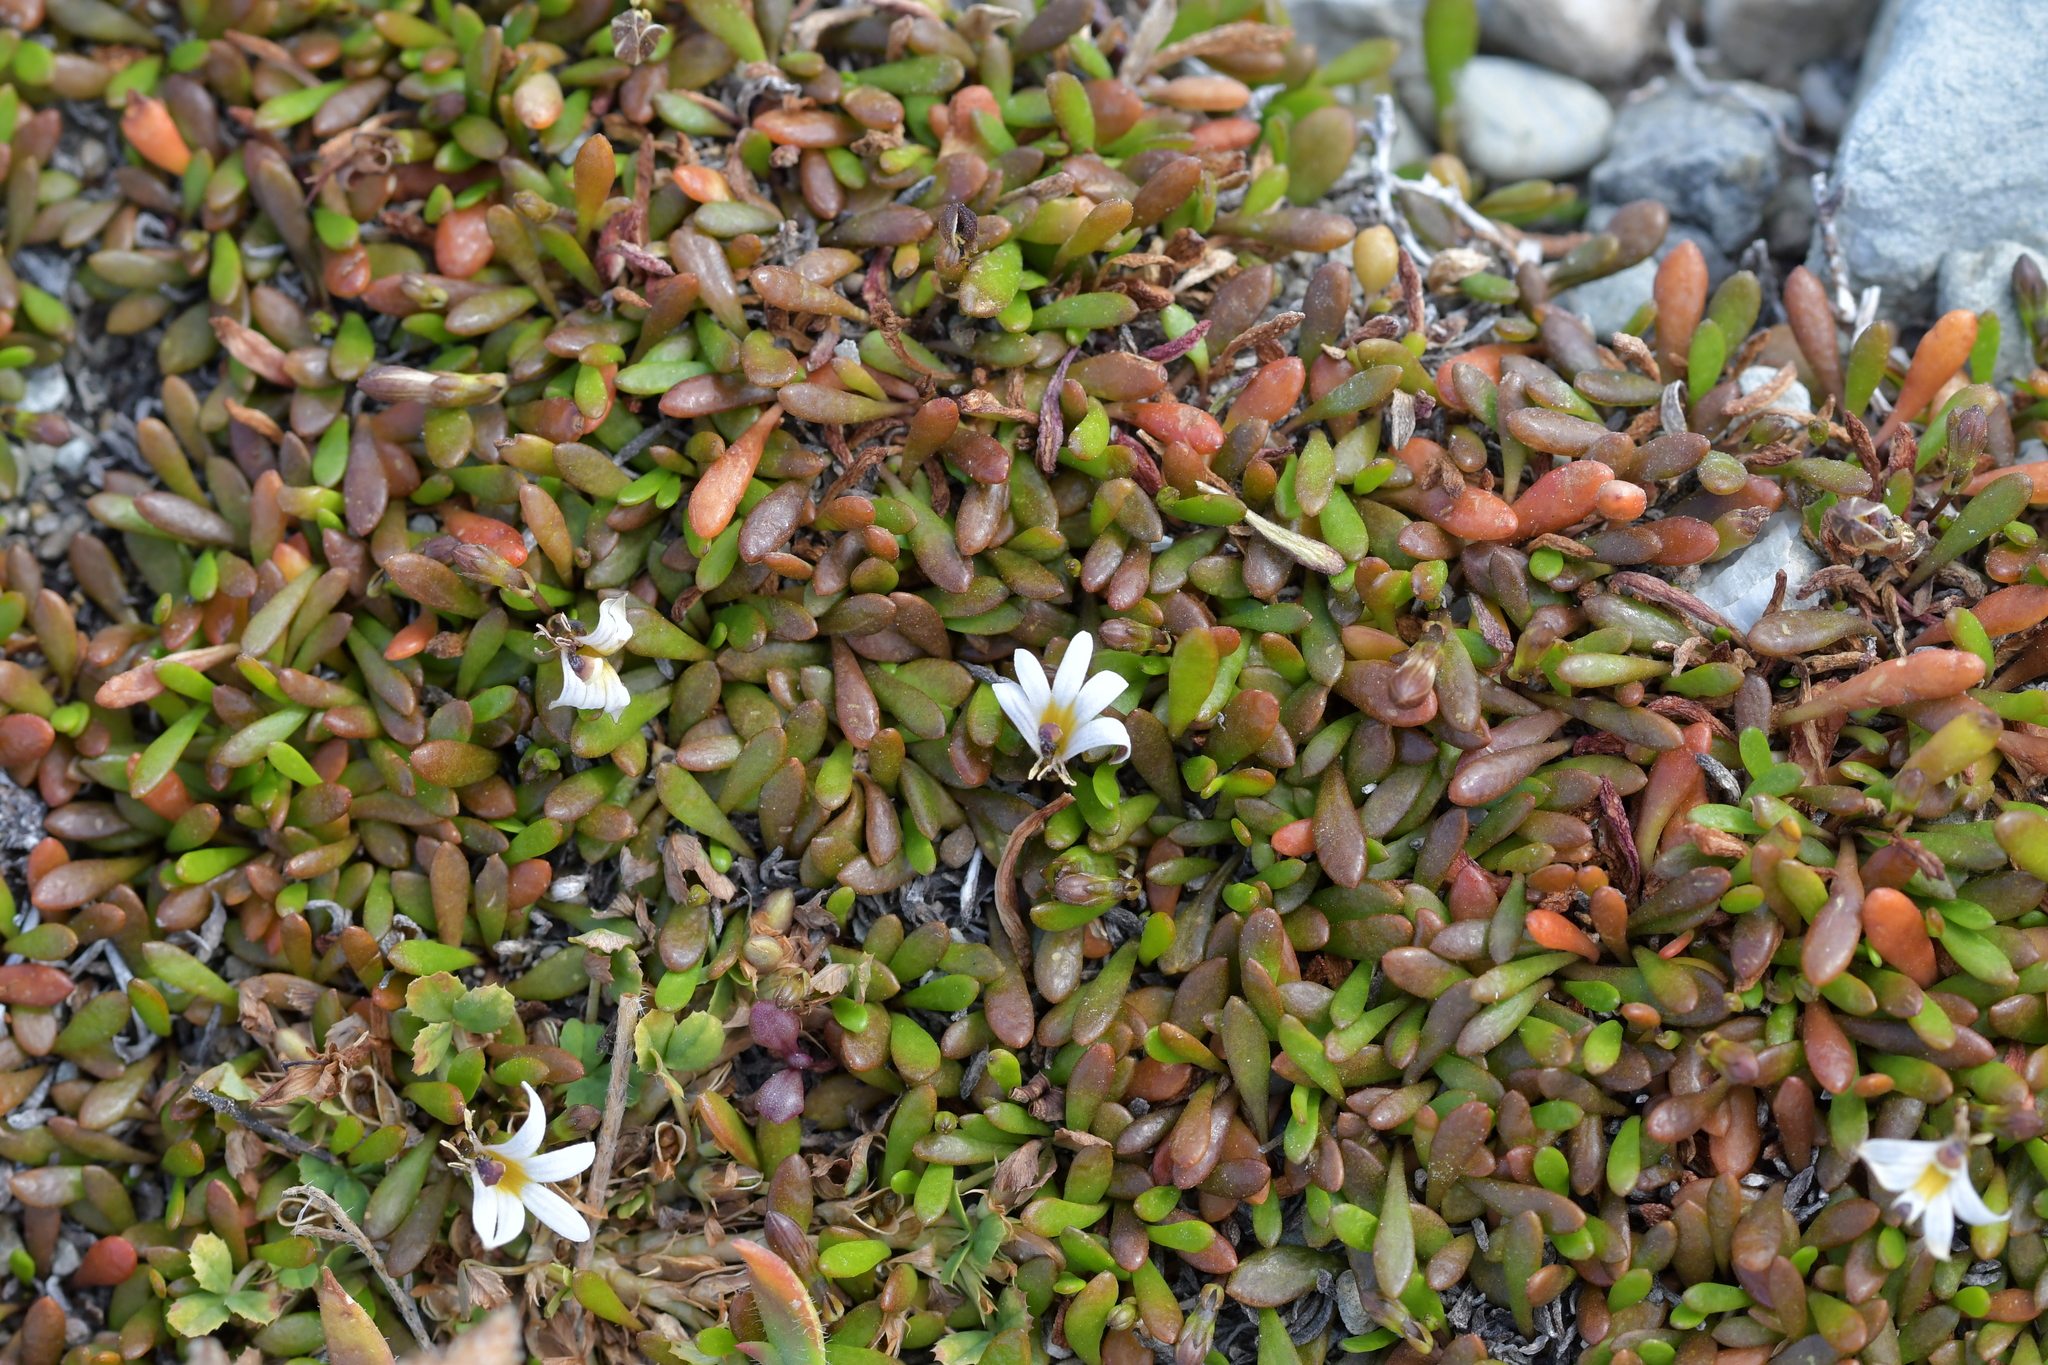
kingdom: Plantae
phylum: Tracheophyta
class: Magnoliopsida
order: Asterales
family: Goodeniaceae
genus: Goodenia
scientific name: Goodenia radicans
